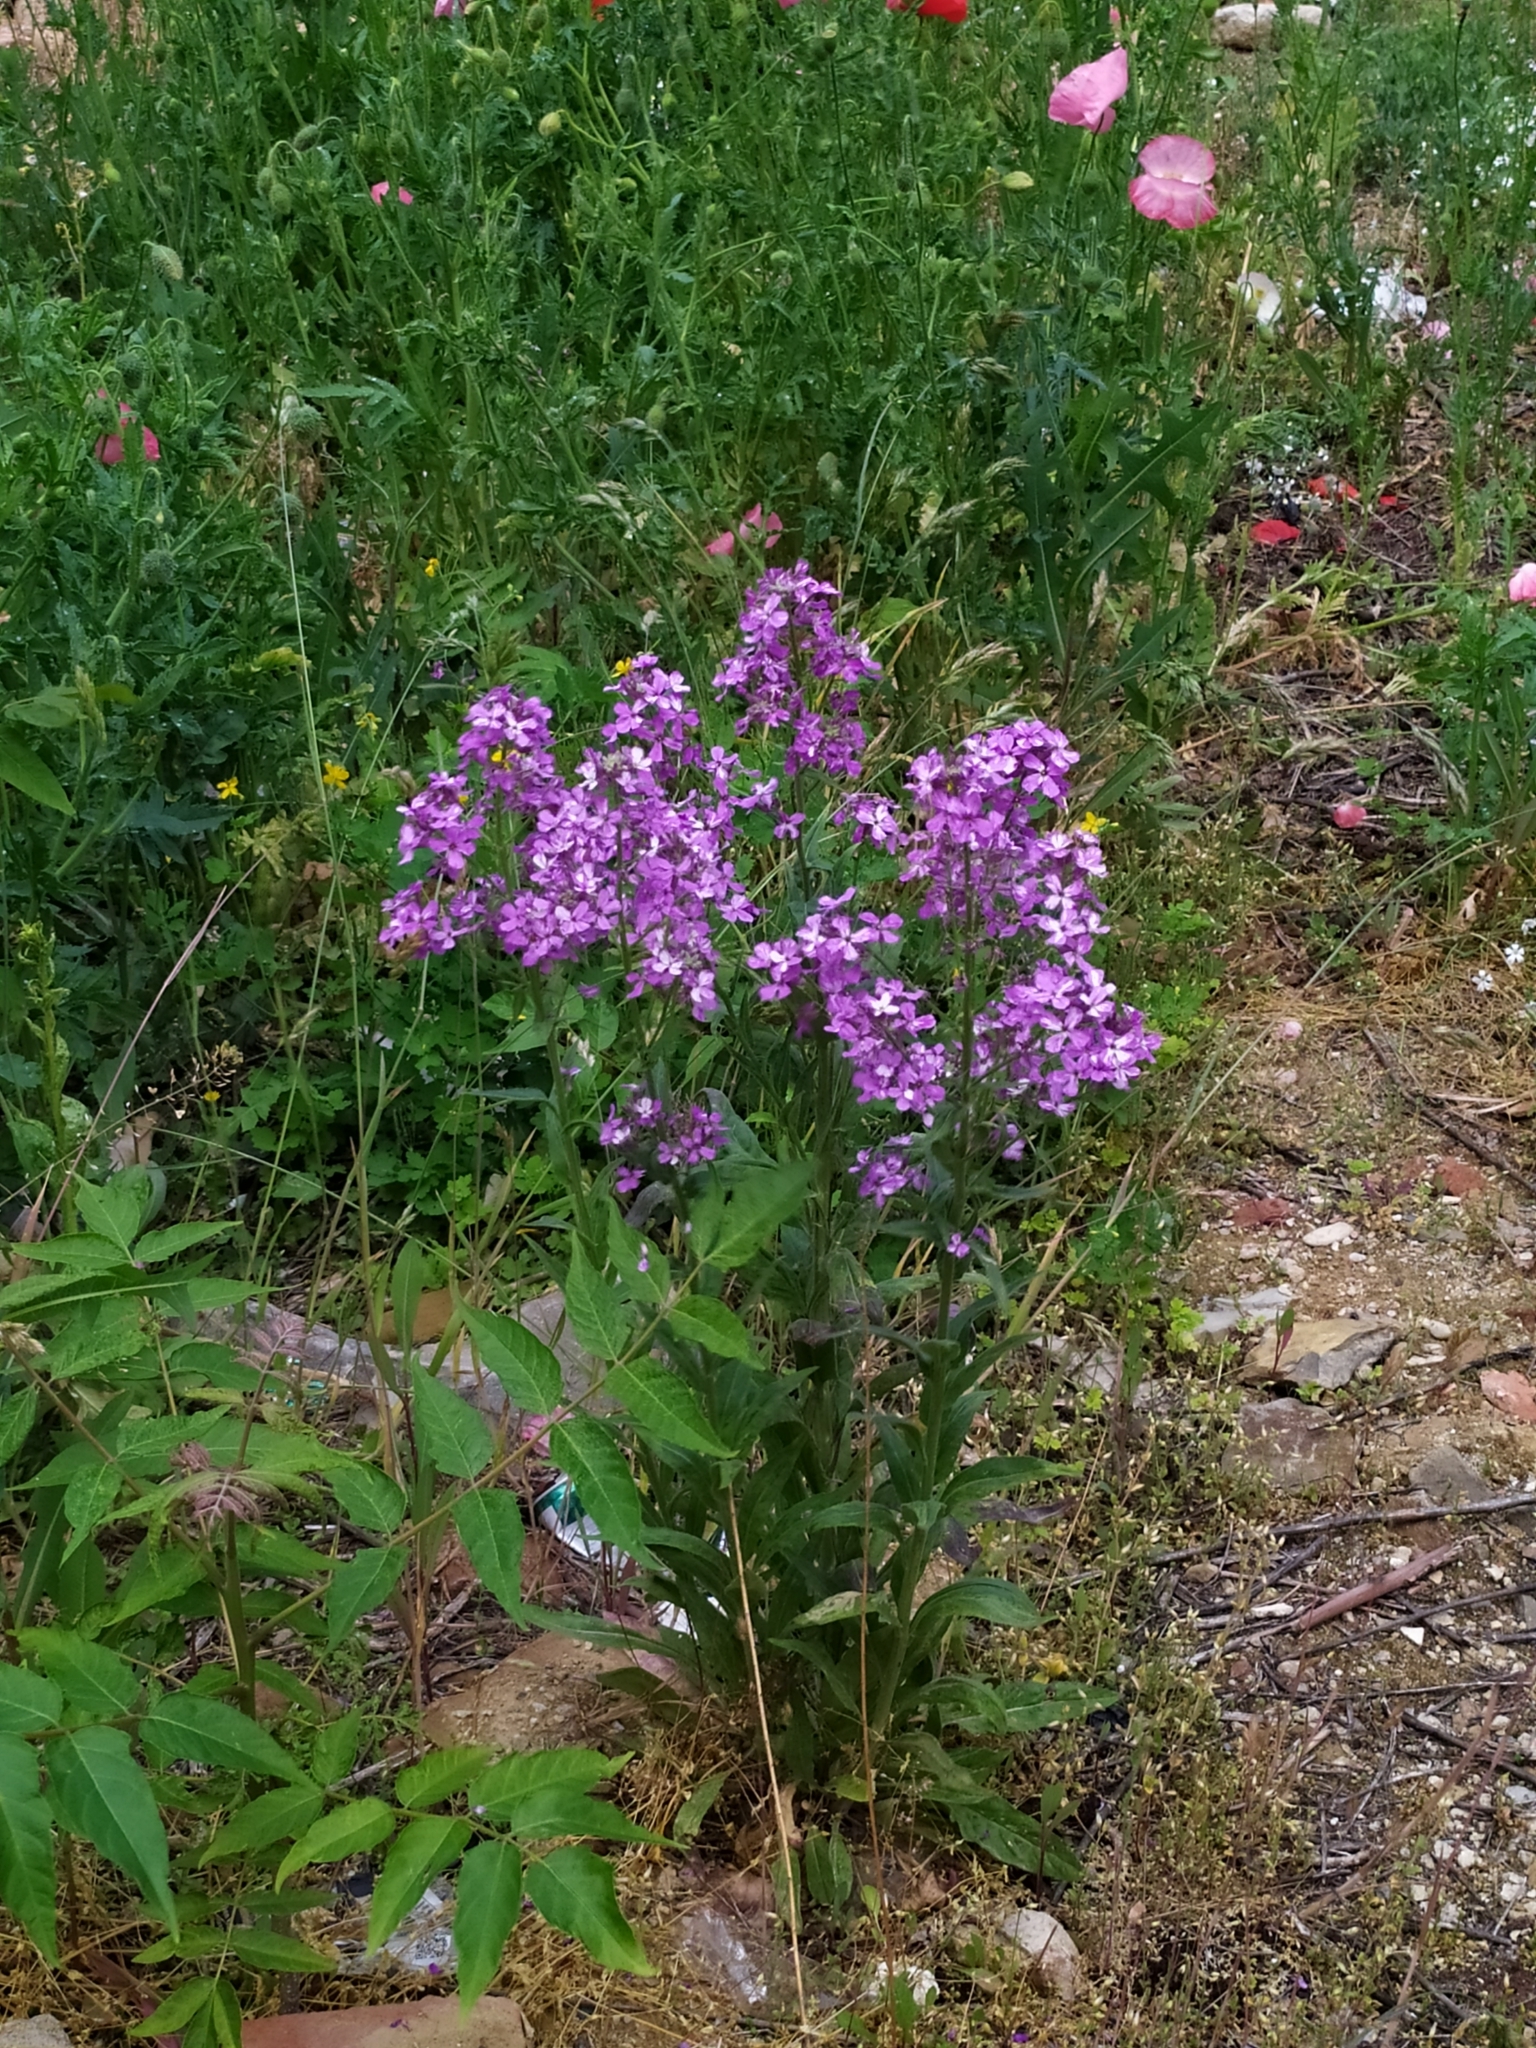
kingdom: Plantae
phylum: Tracheophyta
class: Magnoliopsida
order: Brassicales
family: Brassicaceae
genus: Hesperis
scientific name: Hesperis matronalis
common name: Dame's-violet
